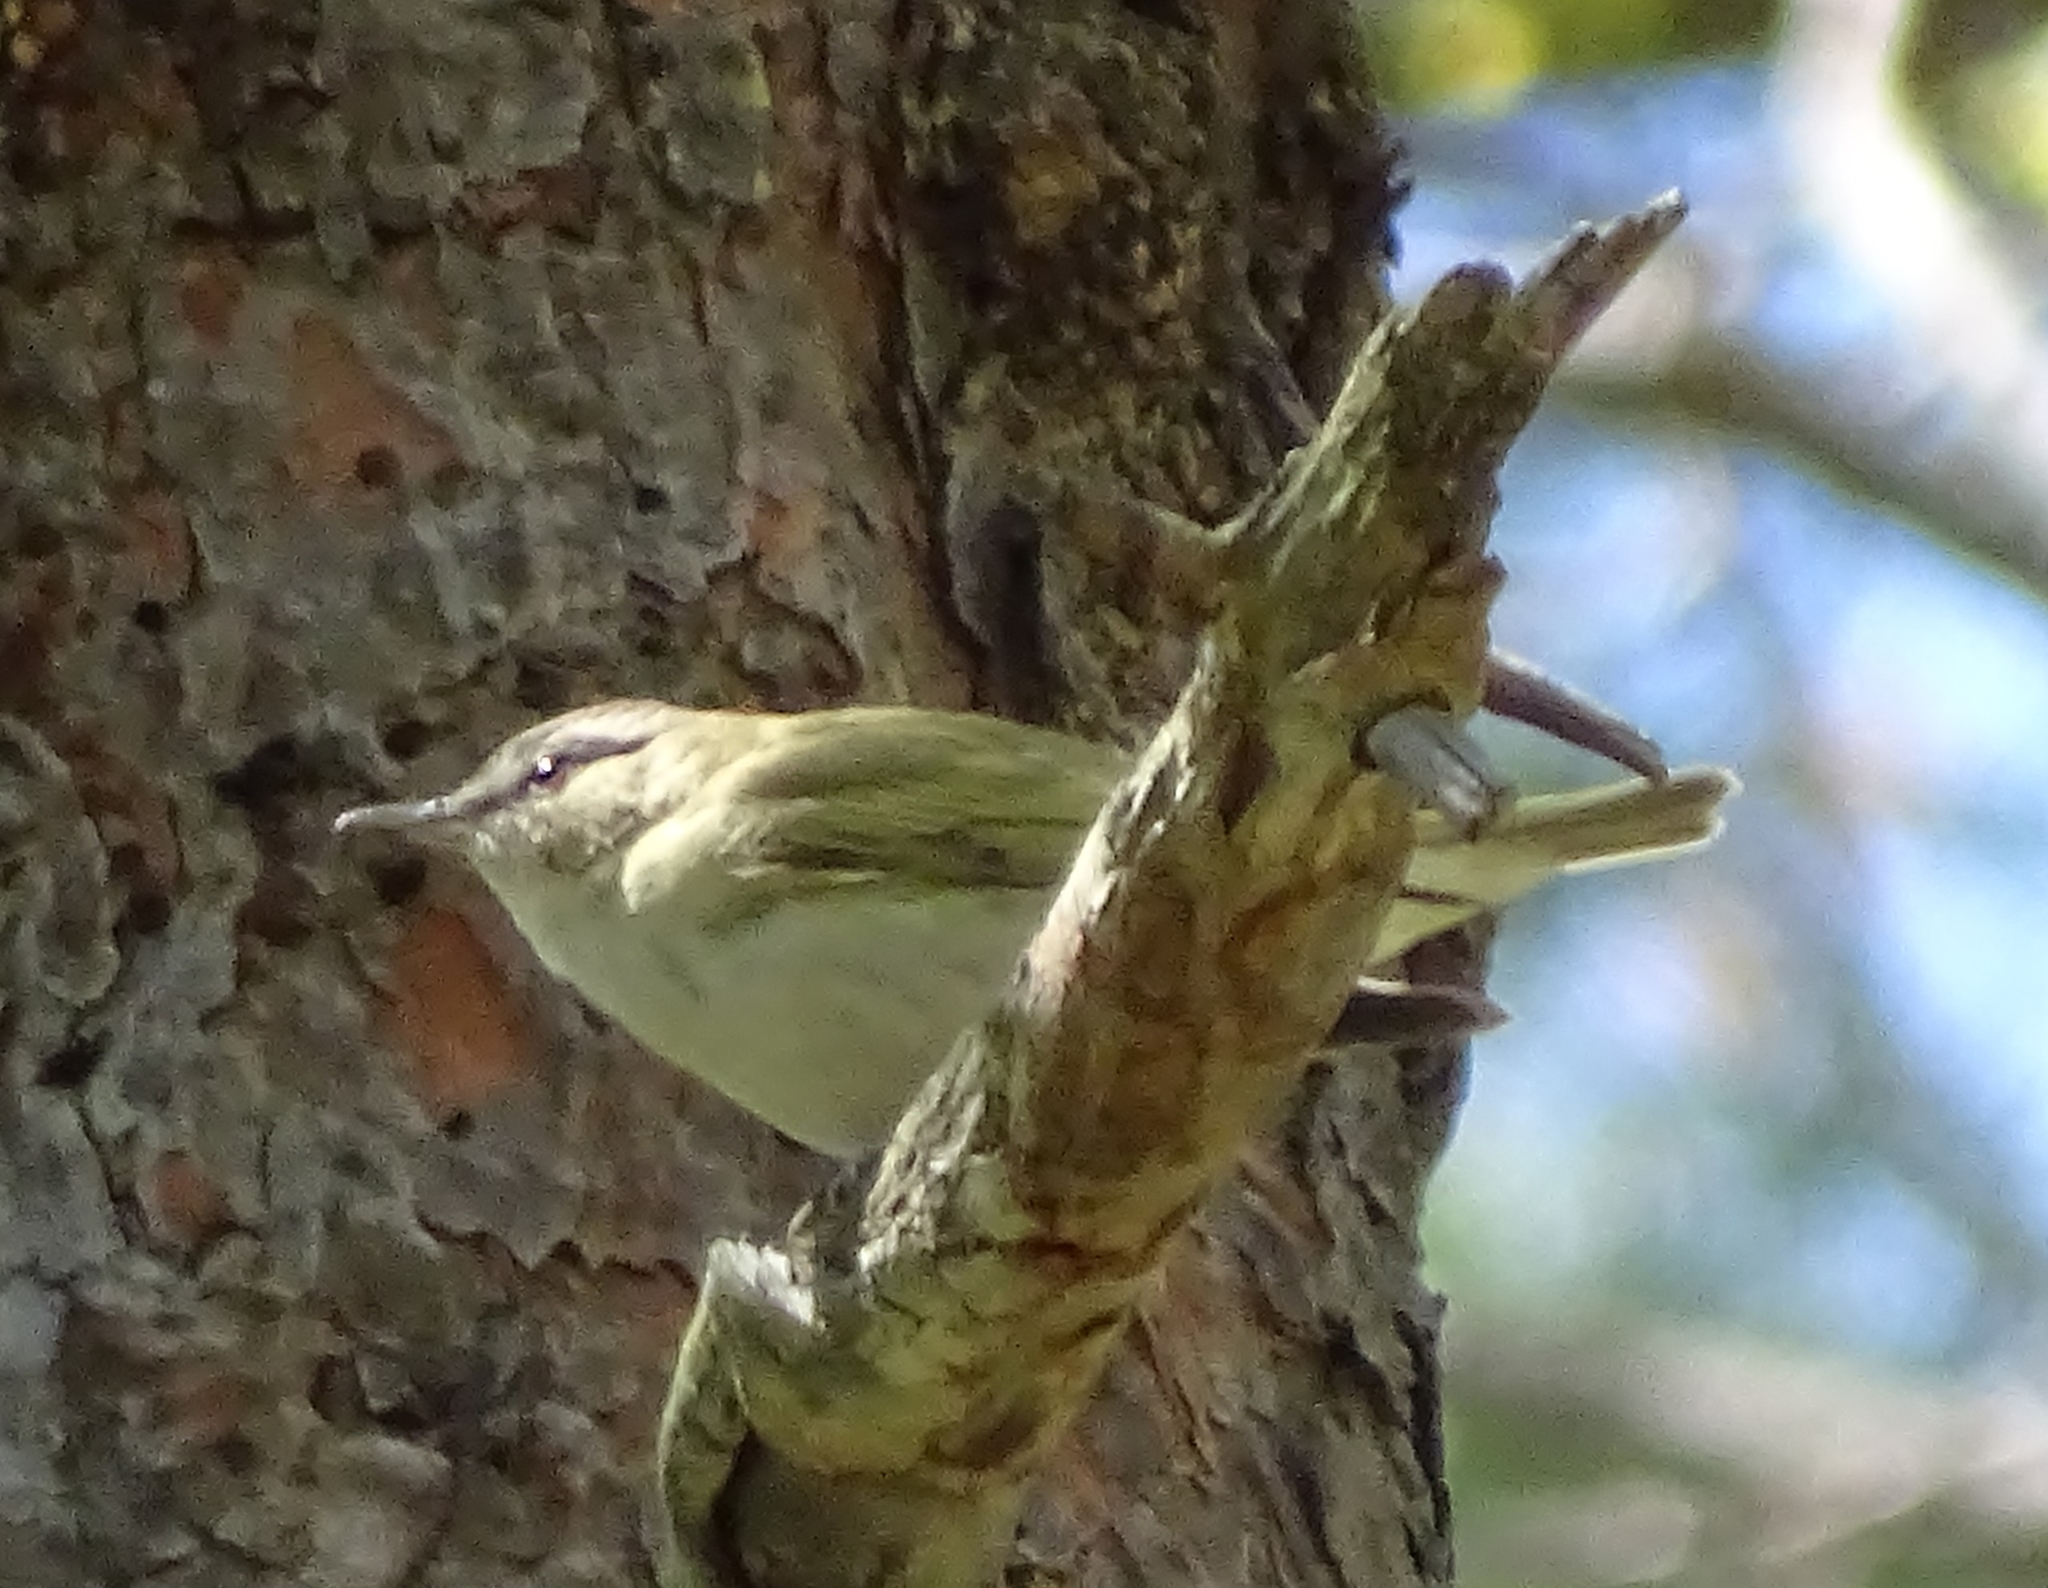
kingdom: Animalia
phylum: Chordata
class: Aves
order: Passeriformes
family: Vireonidae
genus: Vireo
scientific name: Vireo olivaceus
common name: Red-eyed vireo
